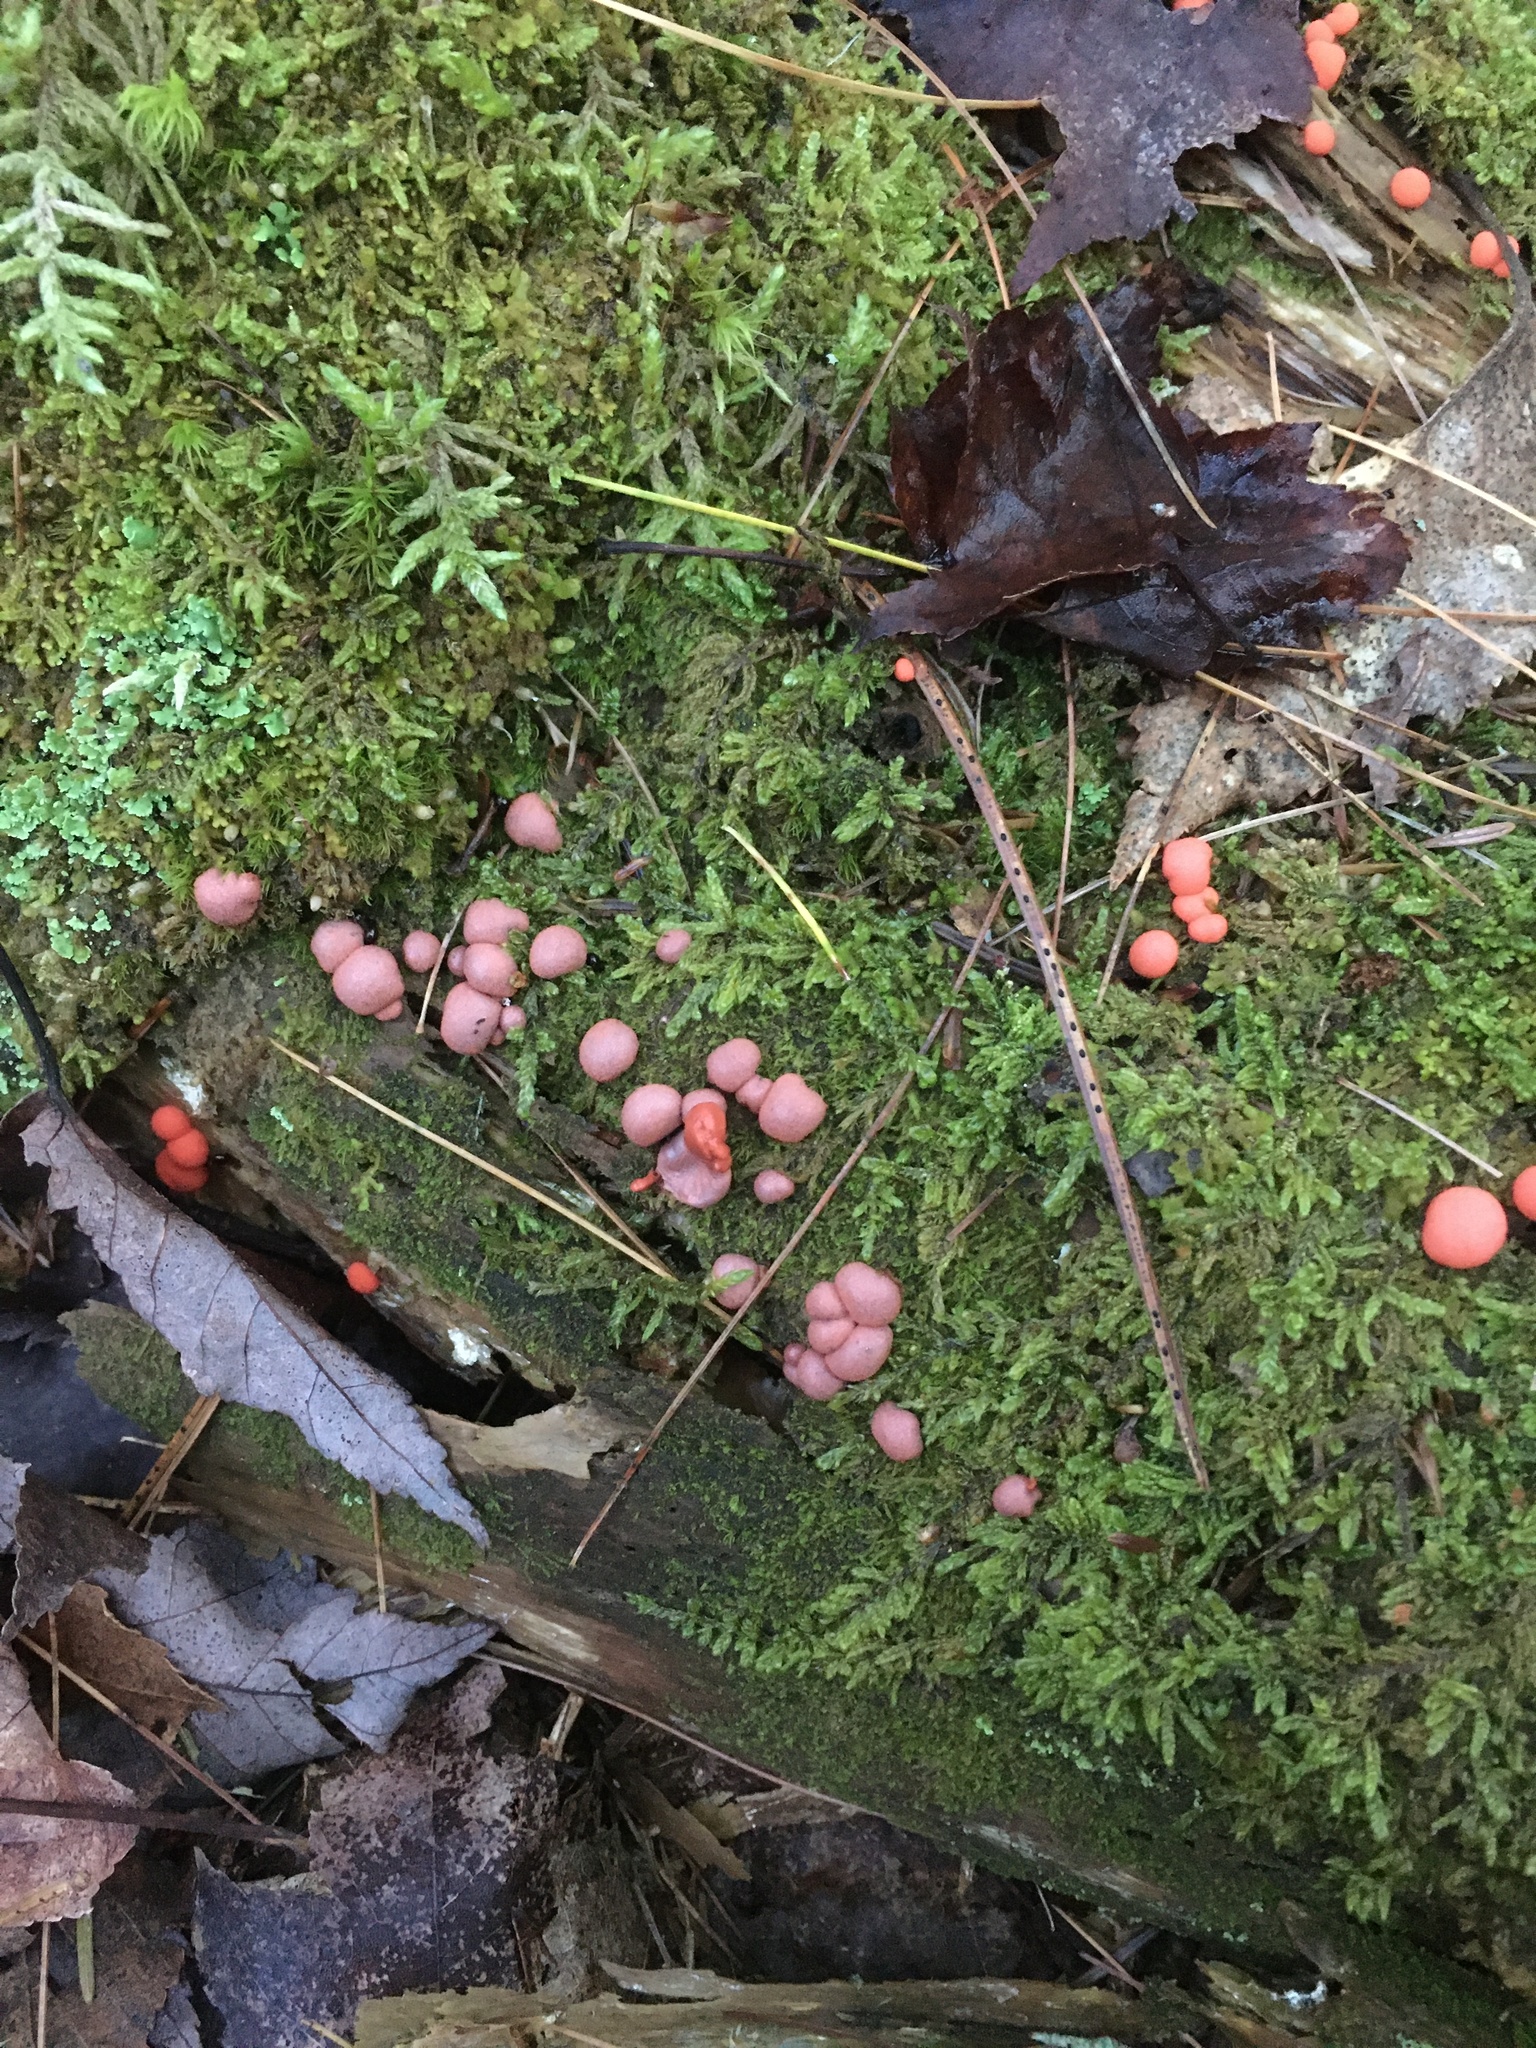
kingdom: Protozoa
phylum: Mycetozoa
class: Myxomycetes
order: Cribrariales
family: Tubiferaceae
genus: Lycogala
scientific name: Lycogala epidendrum
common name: Wolf's milk
